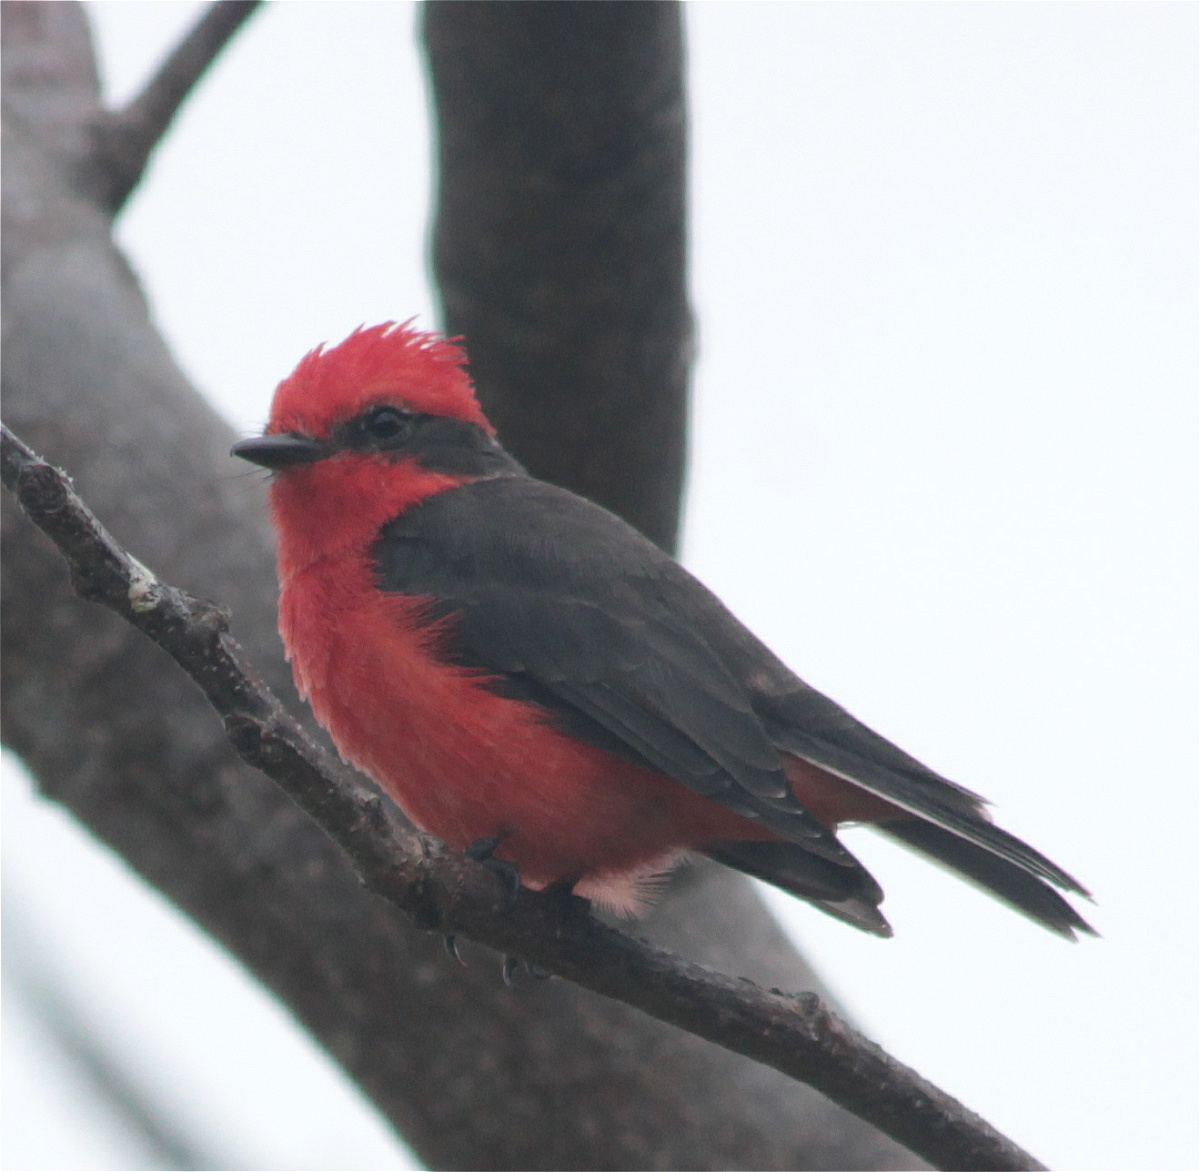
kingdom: Animalia
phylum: Chordata
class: Aves
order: Passeriformes
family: Tyrannidae
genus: Pyrocephalus
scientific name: Pyrocephalus rubinus
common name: Vermilion flycatcher
